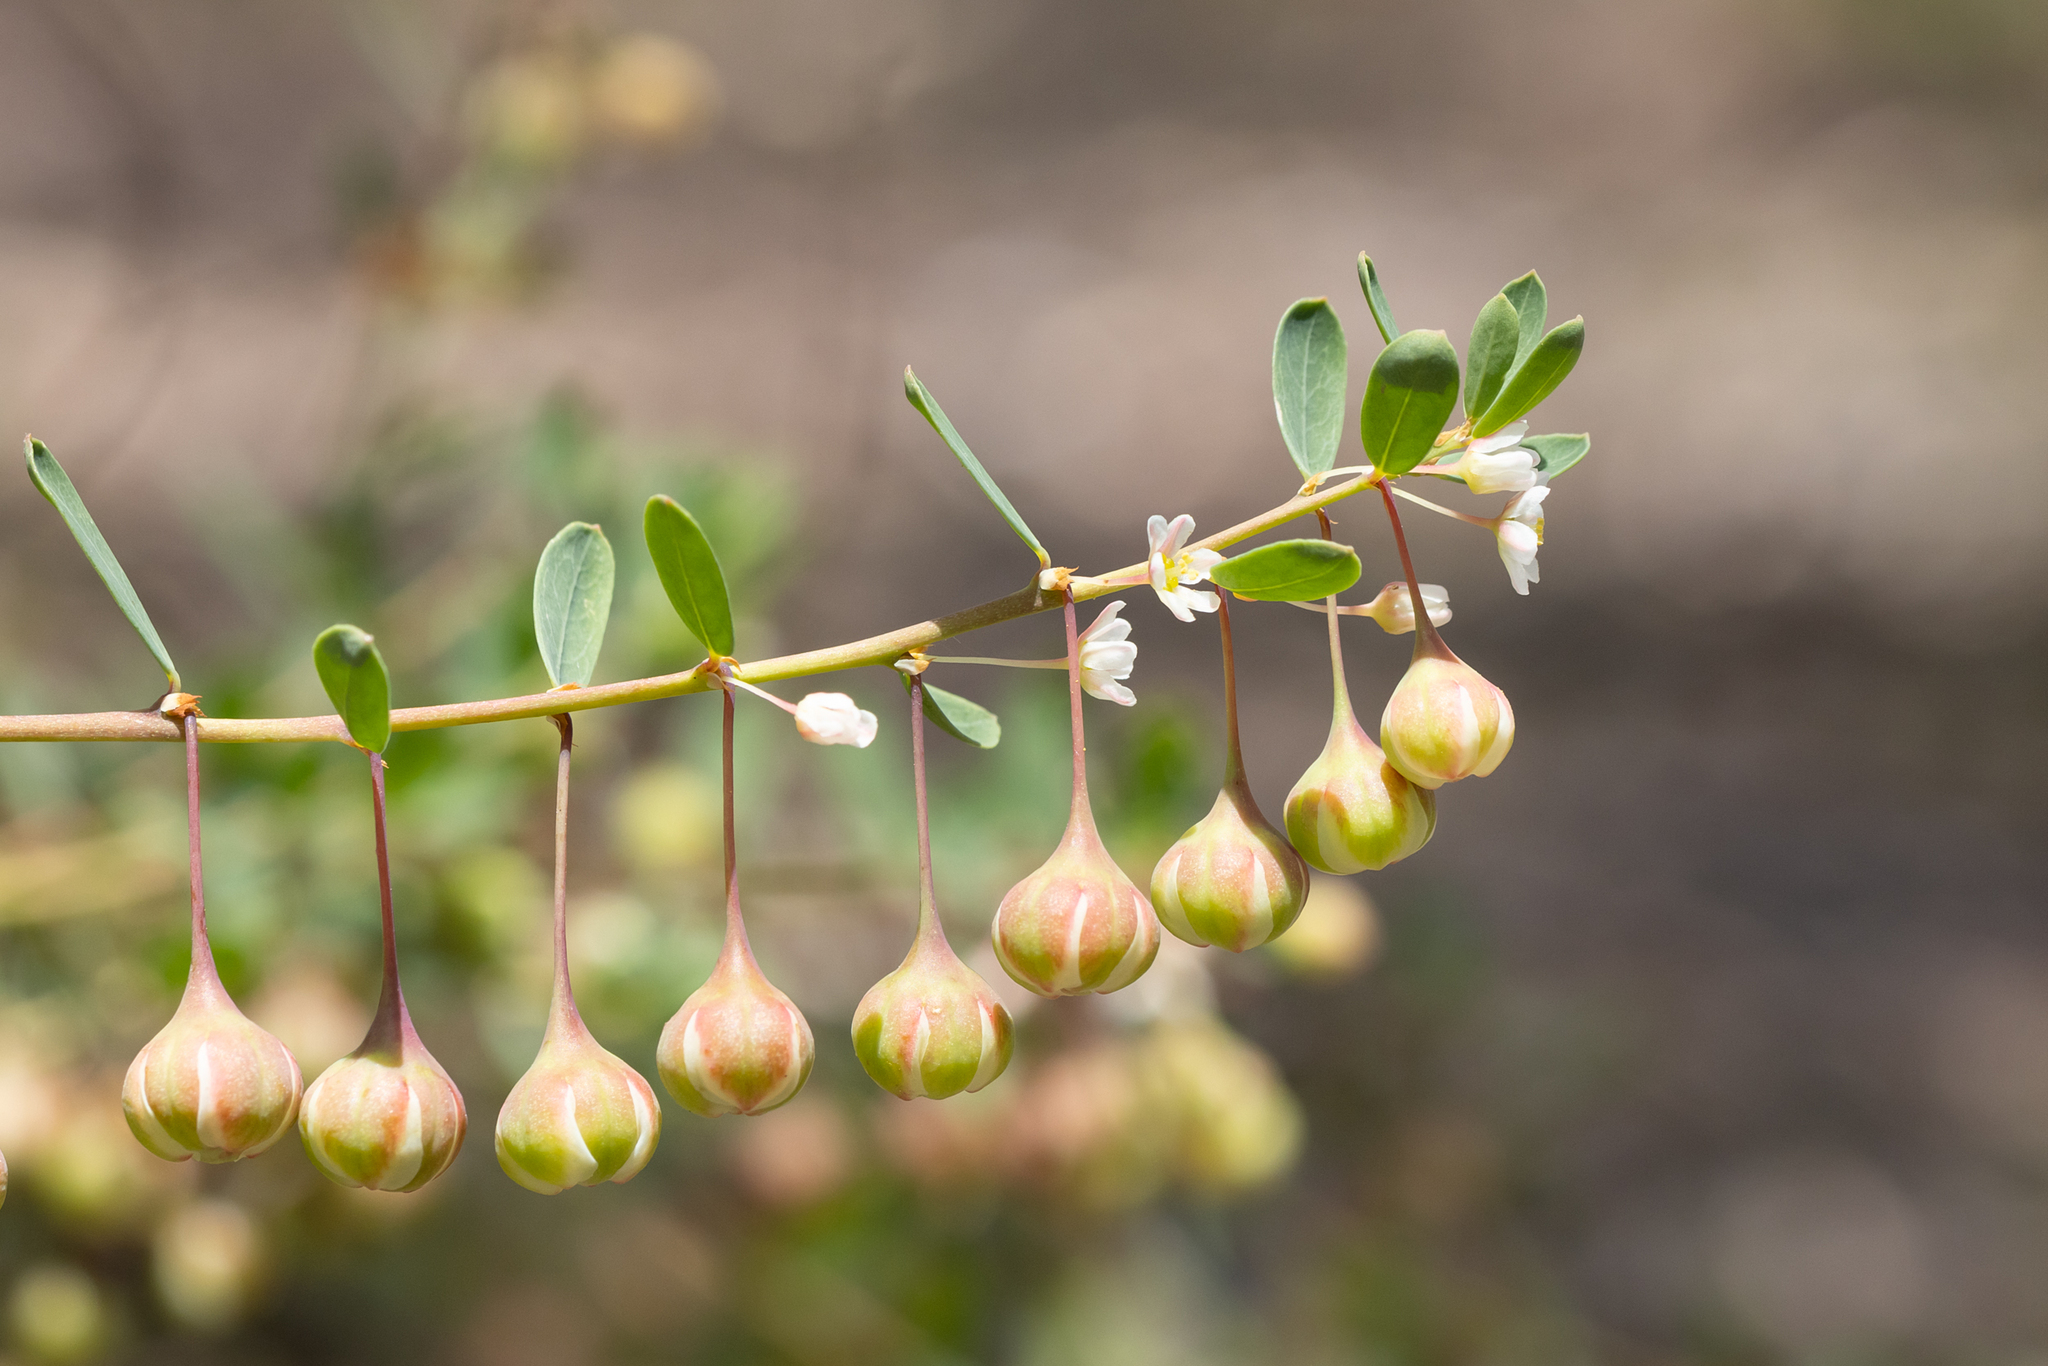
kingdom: Plantae
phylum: Tracheophyta
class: Magnoliopsida
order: Malpighiales
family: Phyllanthaceae
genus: Phyllanthus
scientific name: Phyllanthus calycinus
